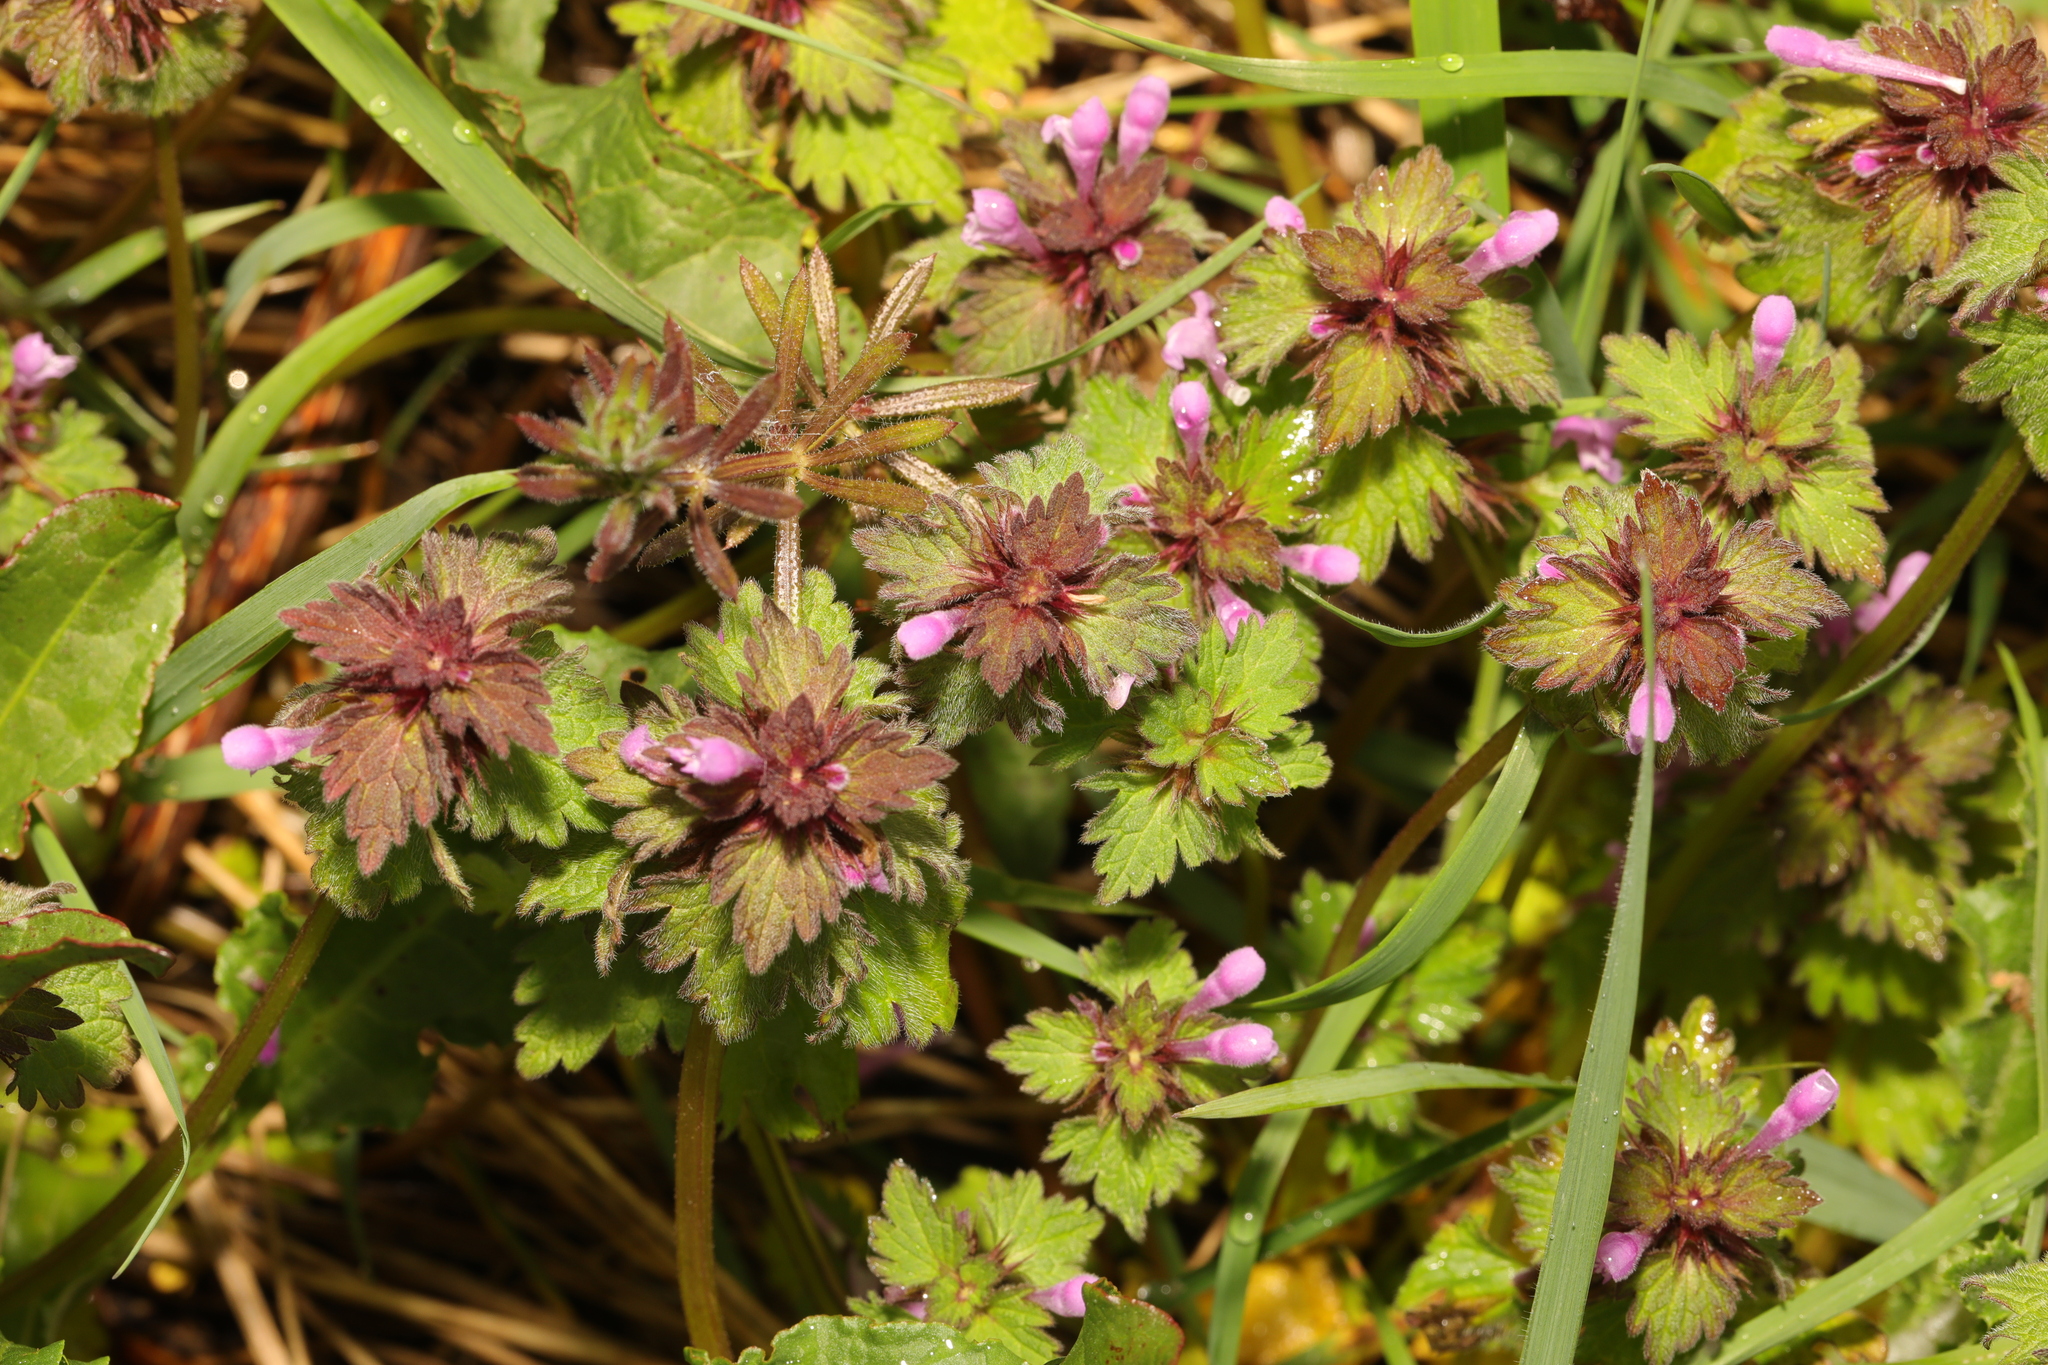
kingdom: Plantae
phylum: Tracheophyta
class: Magnoliopsida
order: Lamiales
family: Lamiaceae
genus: Lamium
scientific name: Lamium hybridum
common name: Cut-leaved dead-nettle
